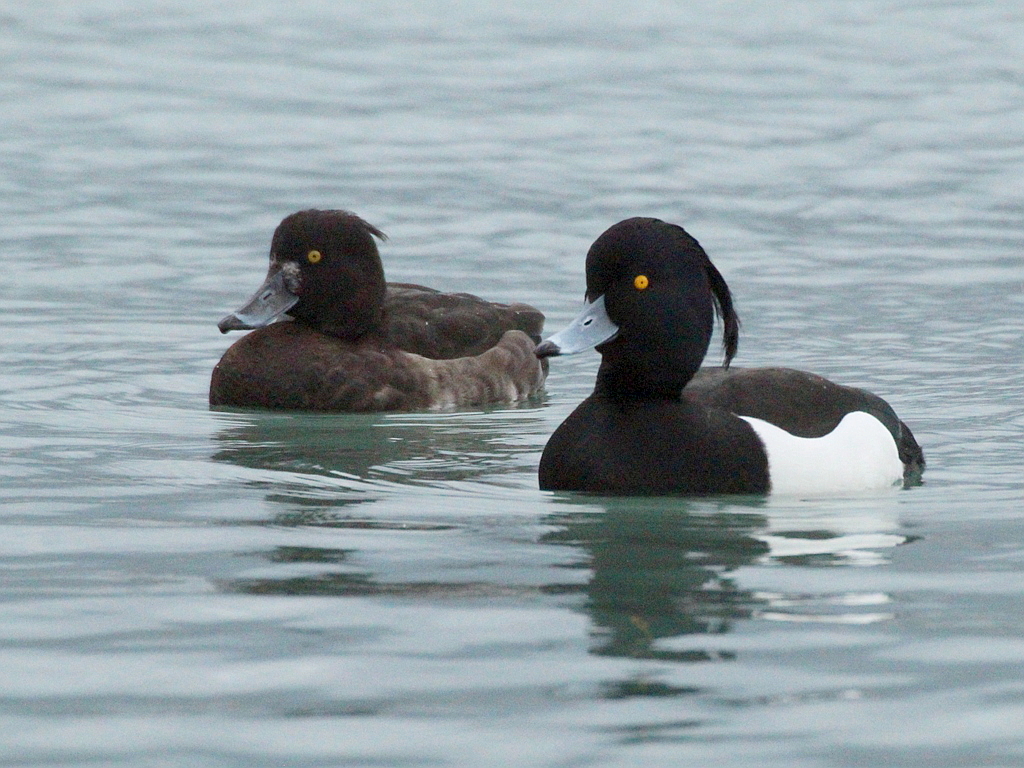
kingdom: Animalia
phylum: Chordata
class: Aves
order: Anseriformes
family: Anatidae
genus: Aythya
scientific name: Aythya fuligula
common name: Tufted duck
